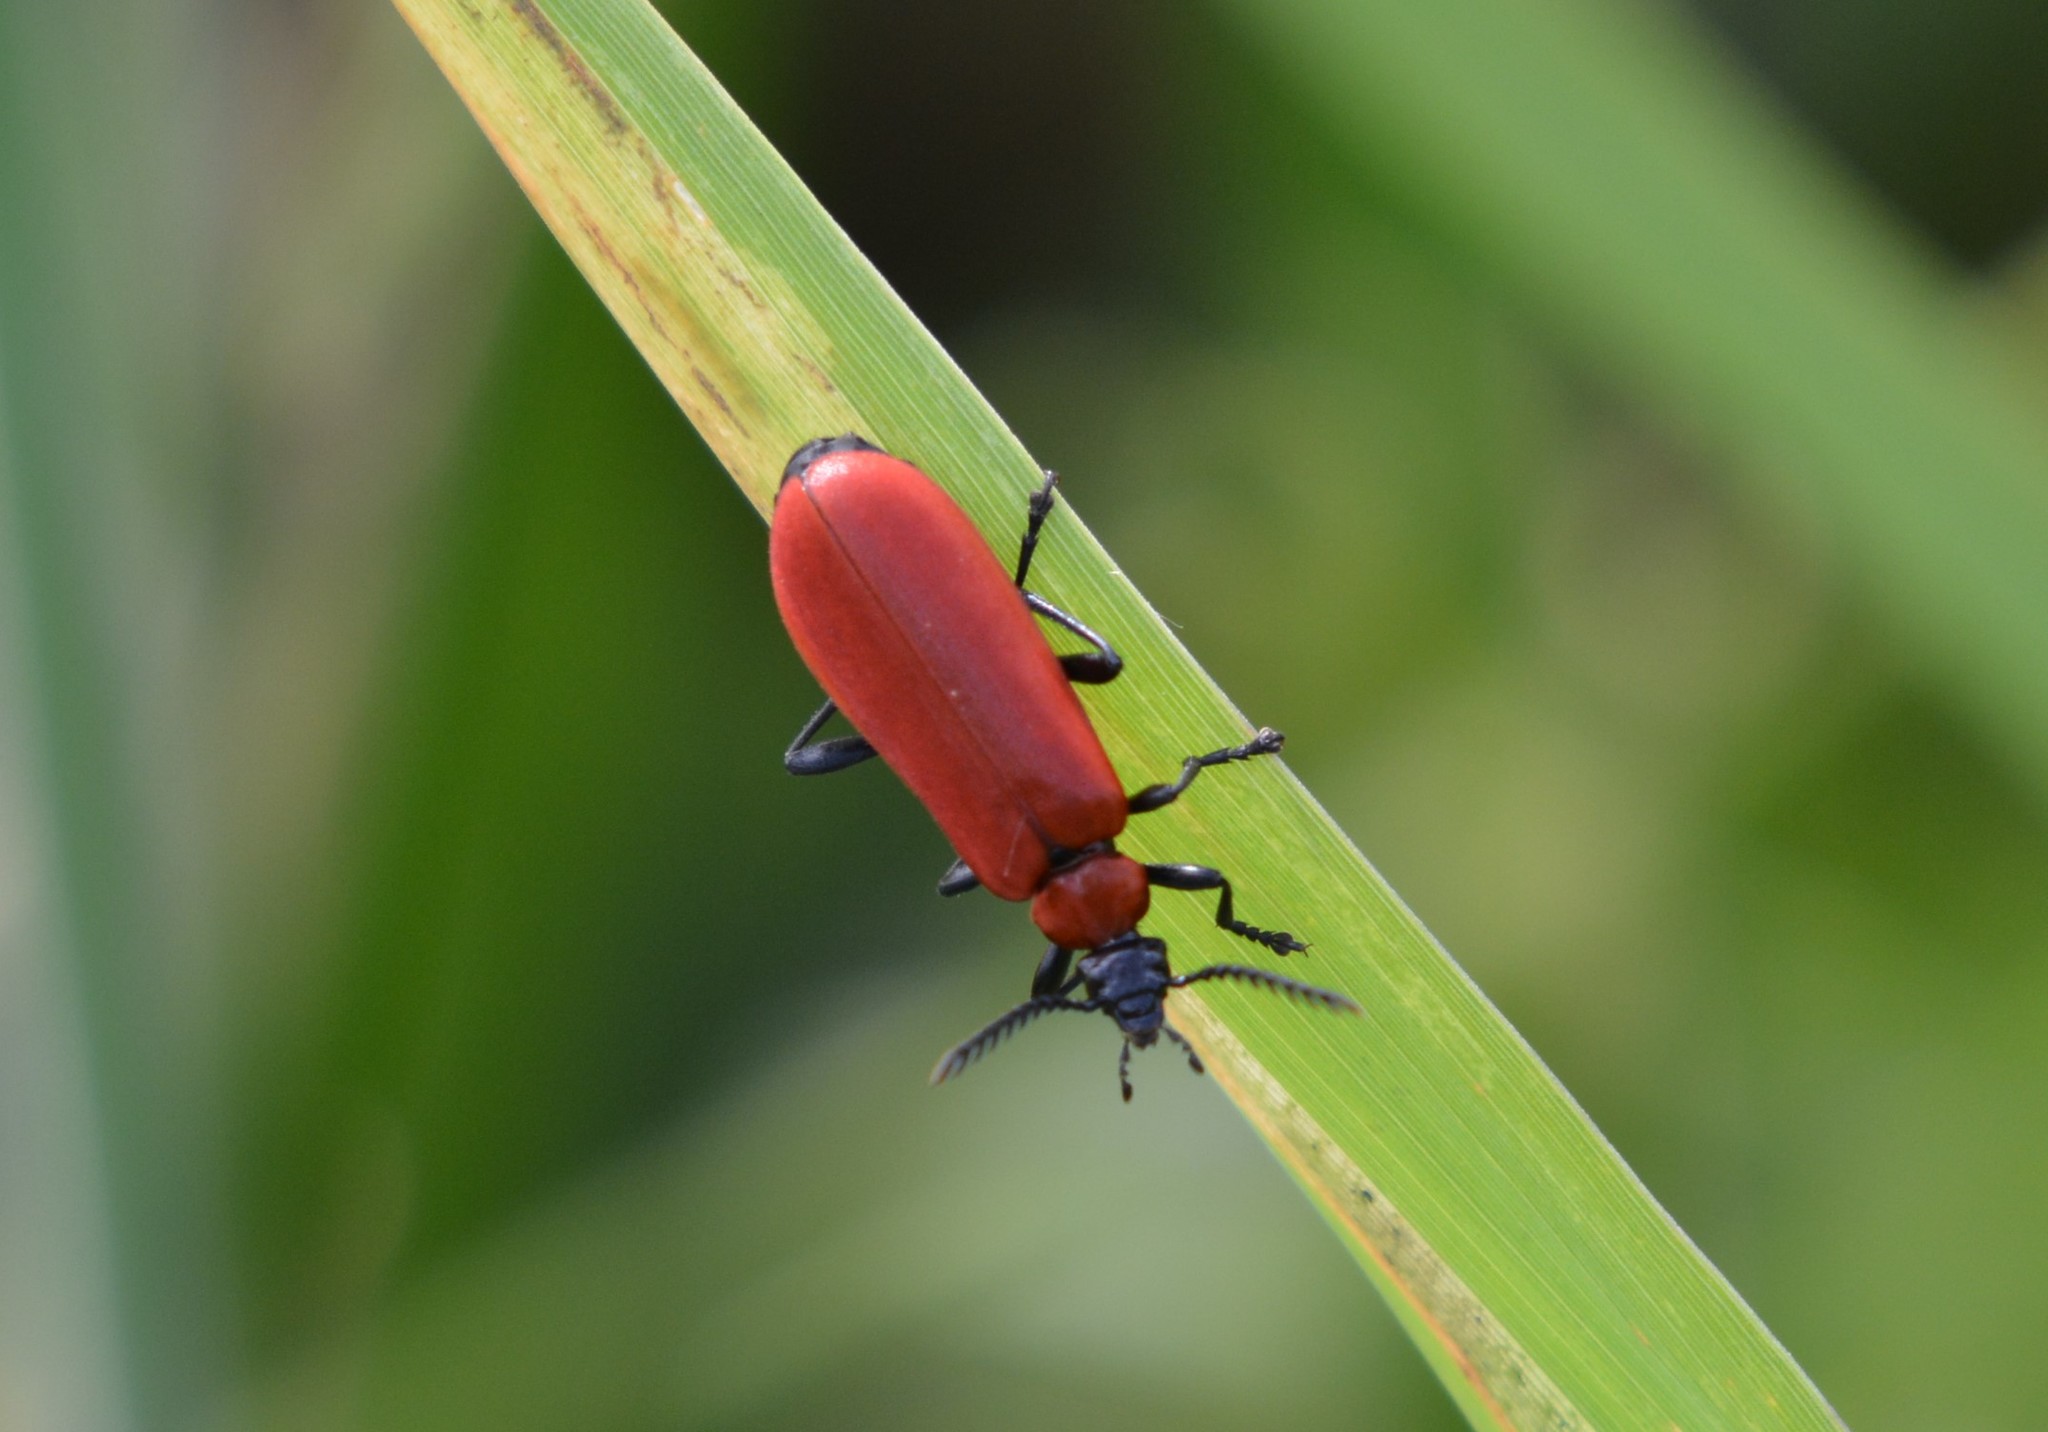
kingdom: Animalia
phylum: Arthropoda
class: Insecta
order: Coleoptera
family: Pyrochroidae
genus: Pyrochroa
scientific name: Pyrochroa coccinea
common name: Black-headed cardinal beetle
